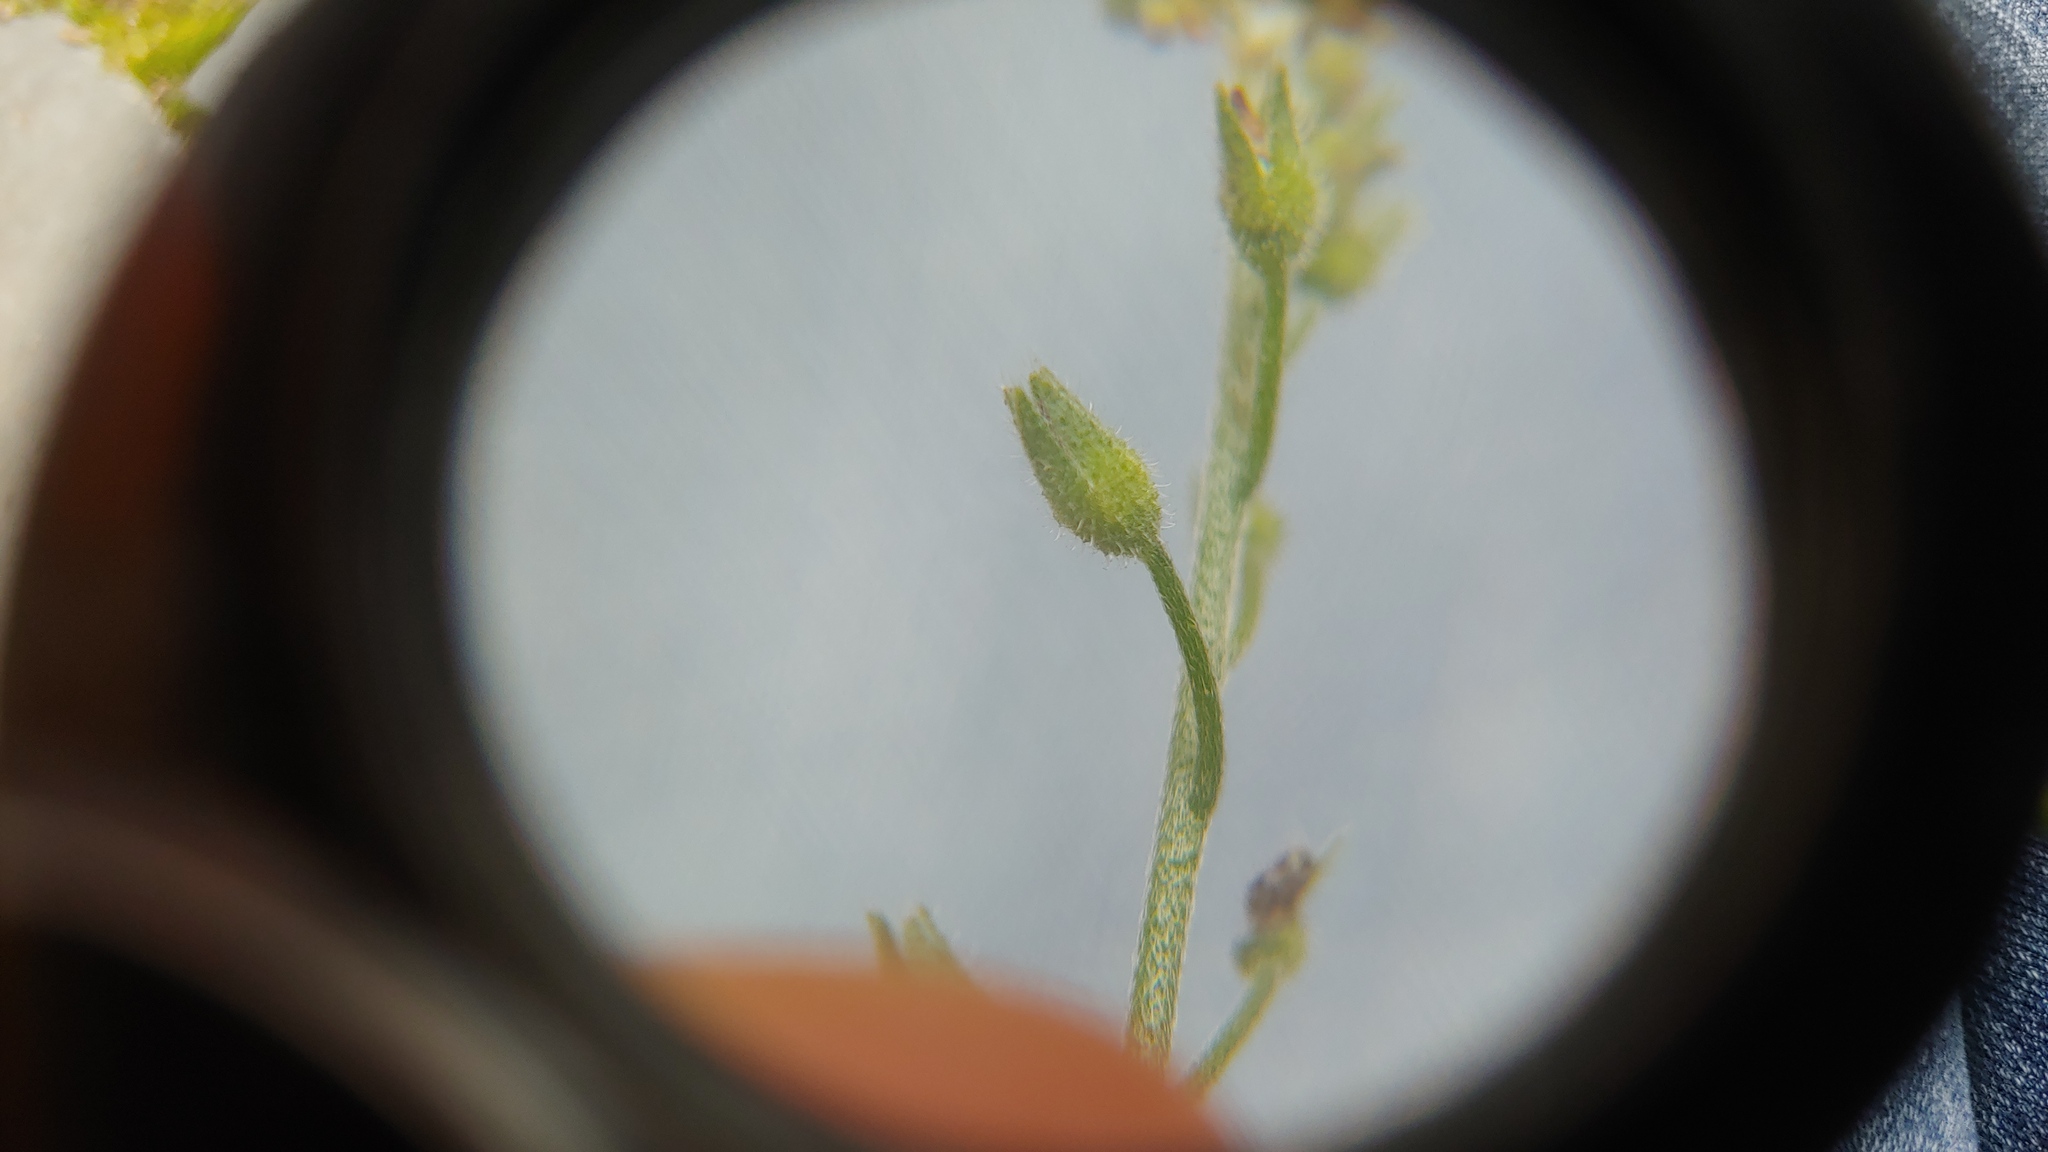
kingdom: Plantae
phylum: Tracheophyta
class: Magnoliopsida
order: Boraginales
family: Boraginaceae
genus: Myosotis
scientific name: Myosotis arvensis
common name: Field forget-me-not
